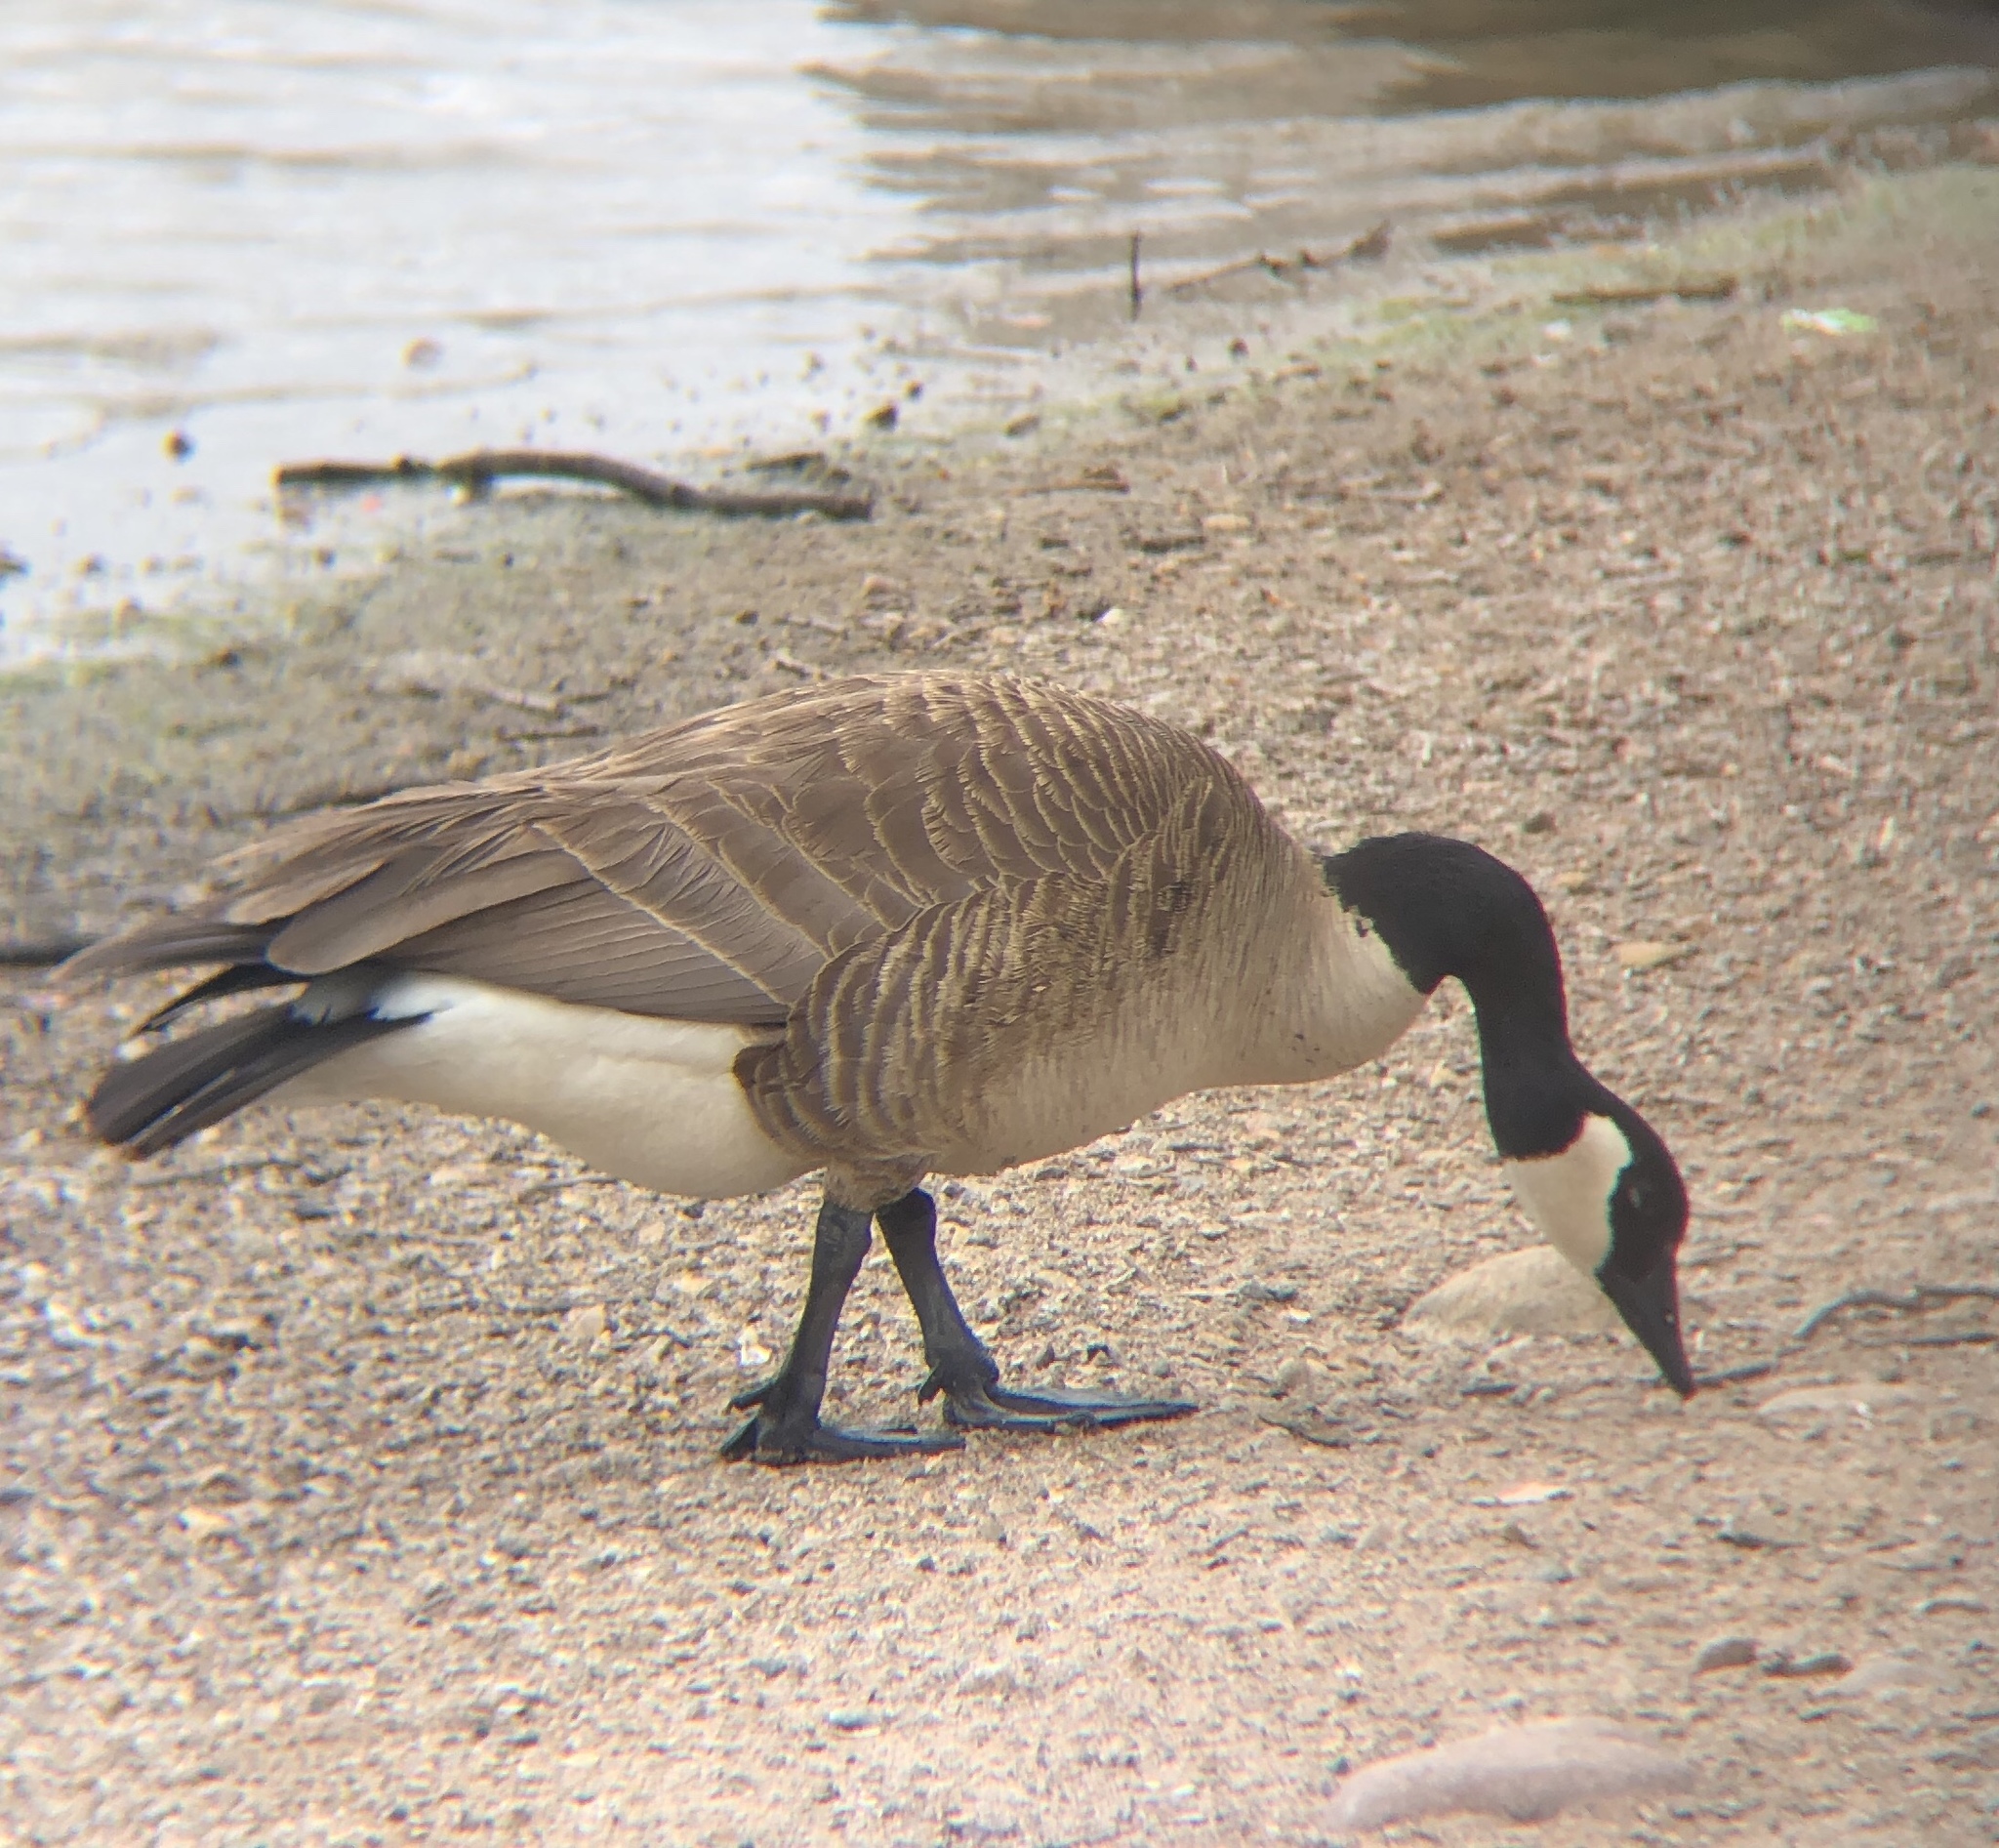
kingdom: Animalia
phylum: Chordata
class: Aves
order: Anseriformes
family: Anatidae
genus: Branta
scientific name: Branta canadensis
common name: Canada goose
